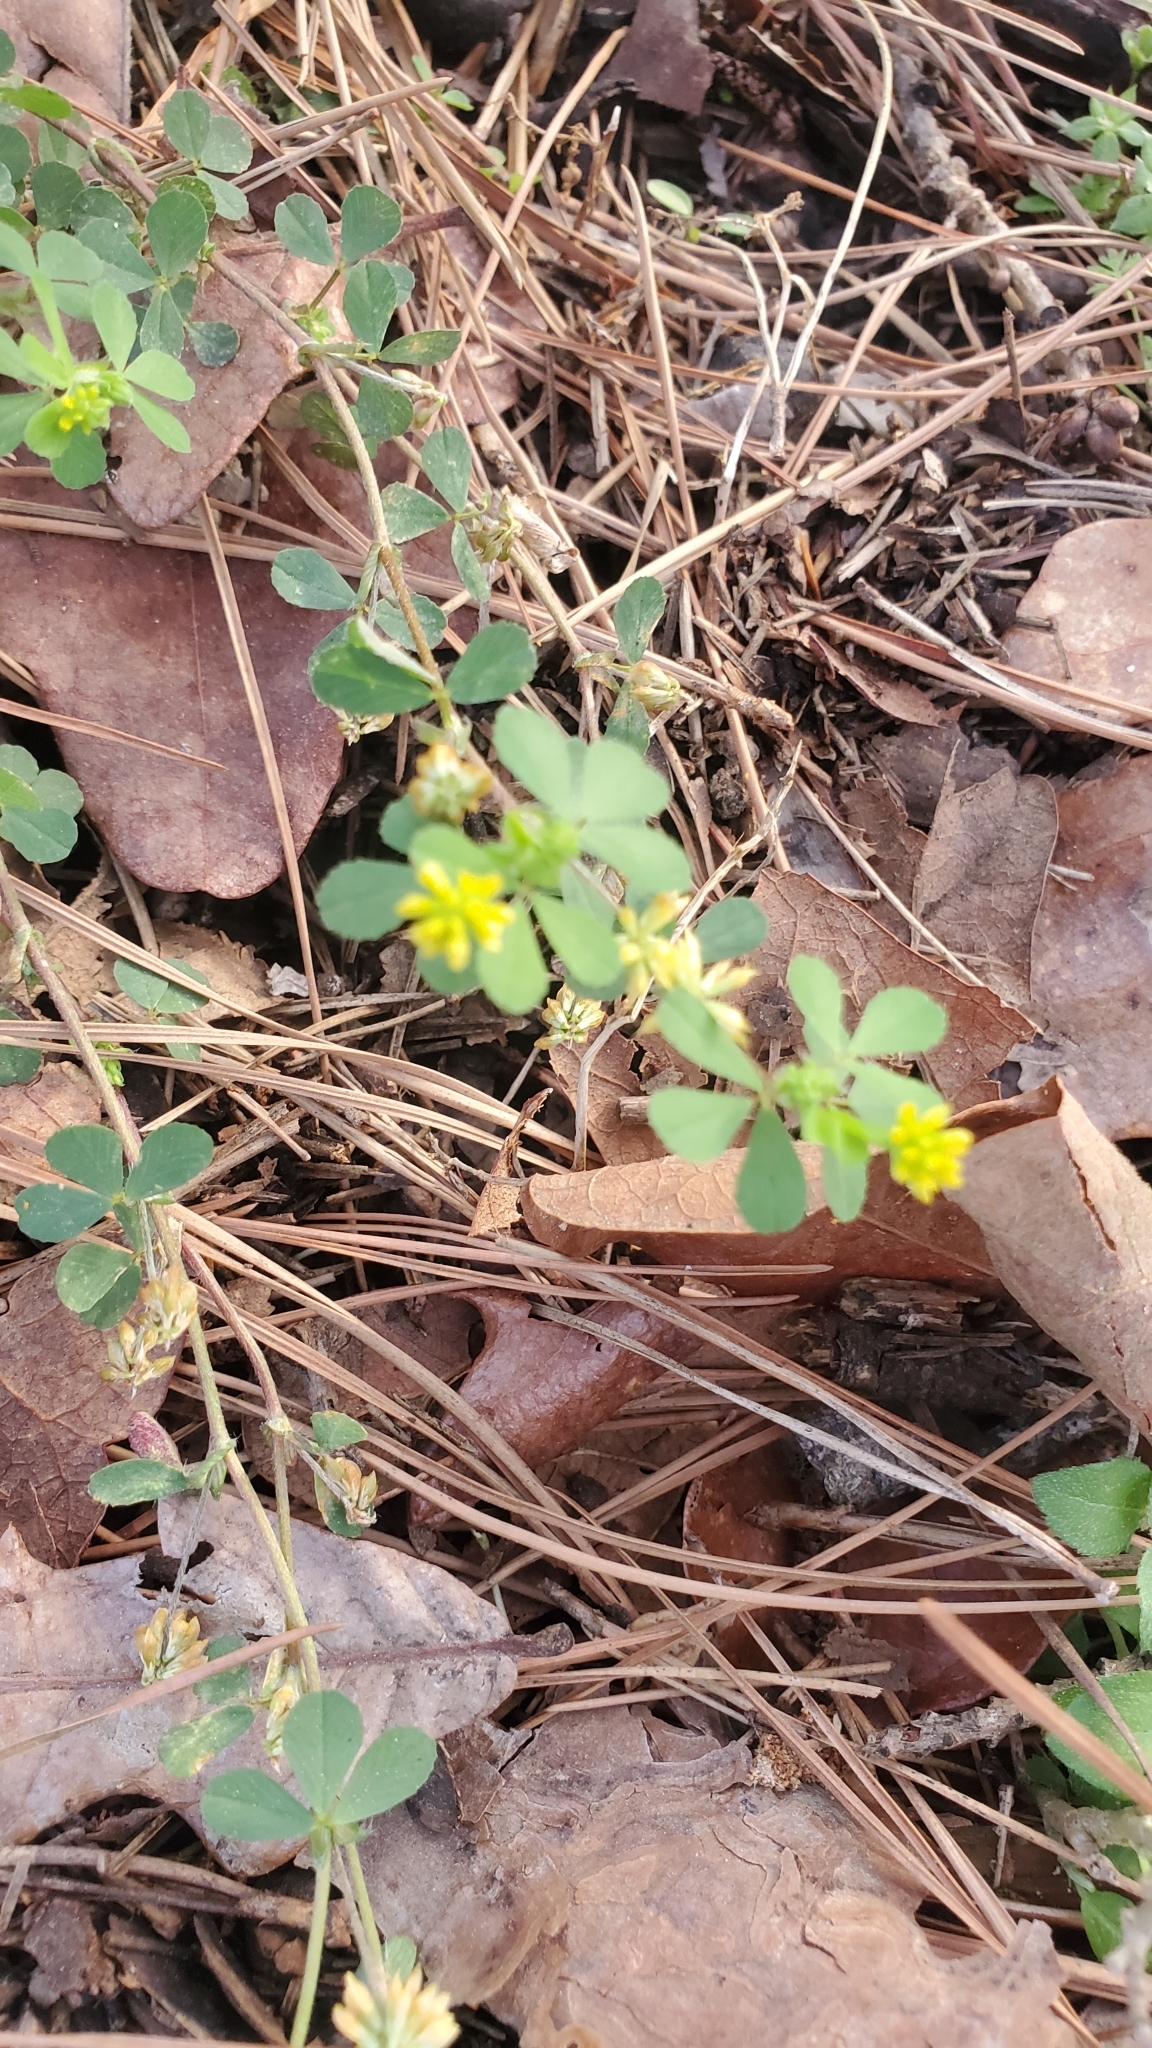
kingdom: Plantae
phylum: Tracheophyta
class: Magnoliopsida
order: Fabales
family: Fabaceae
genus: Trifolium
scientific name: Trifolium dubium
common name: Suckling clover
